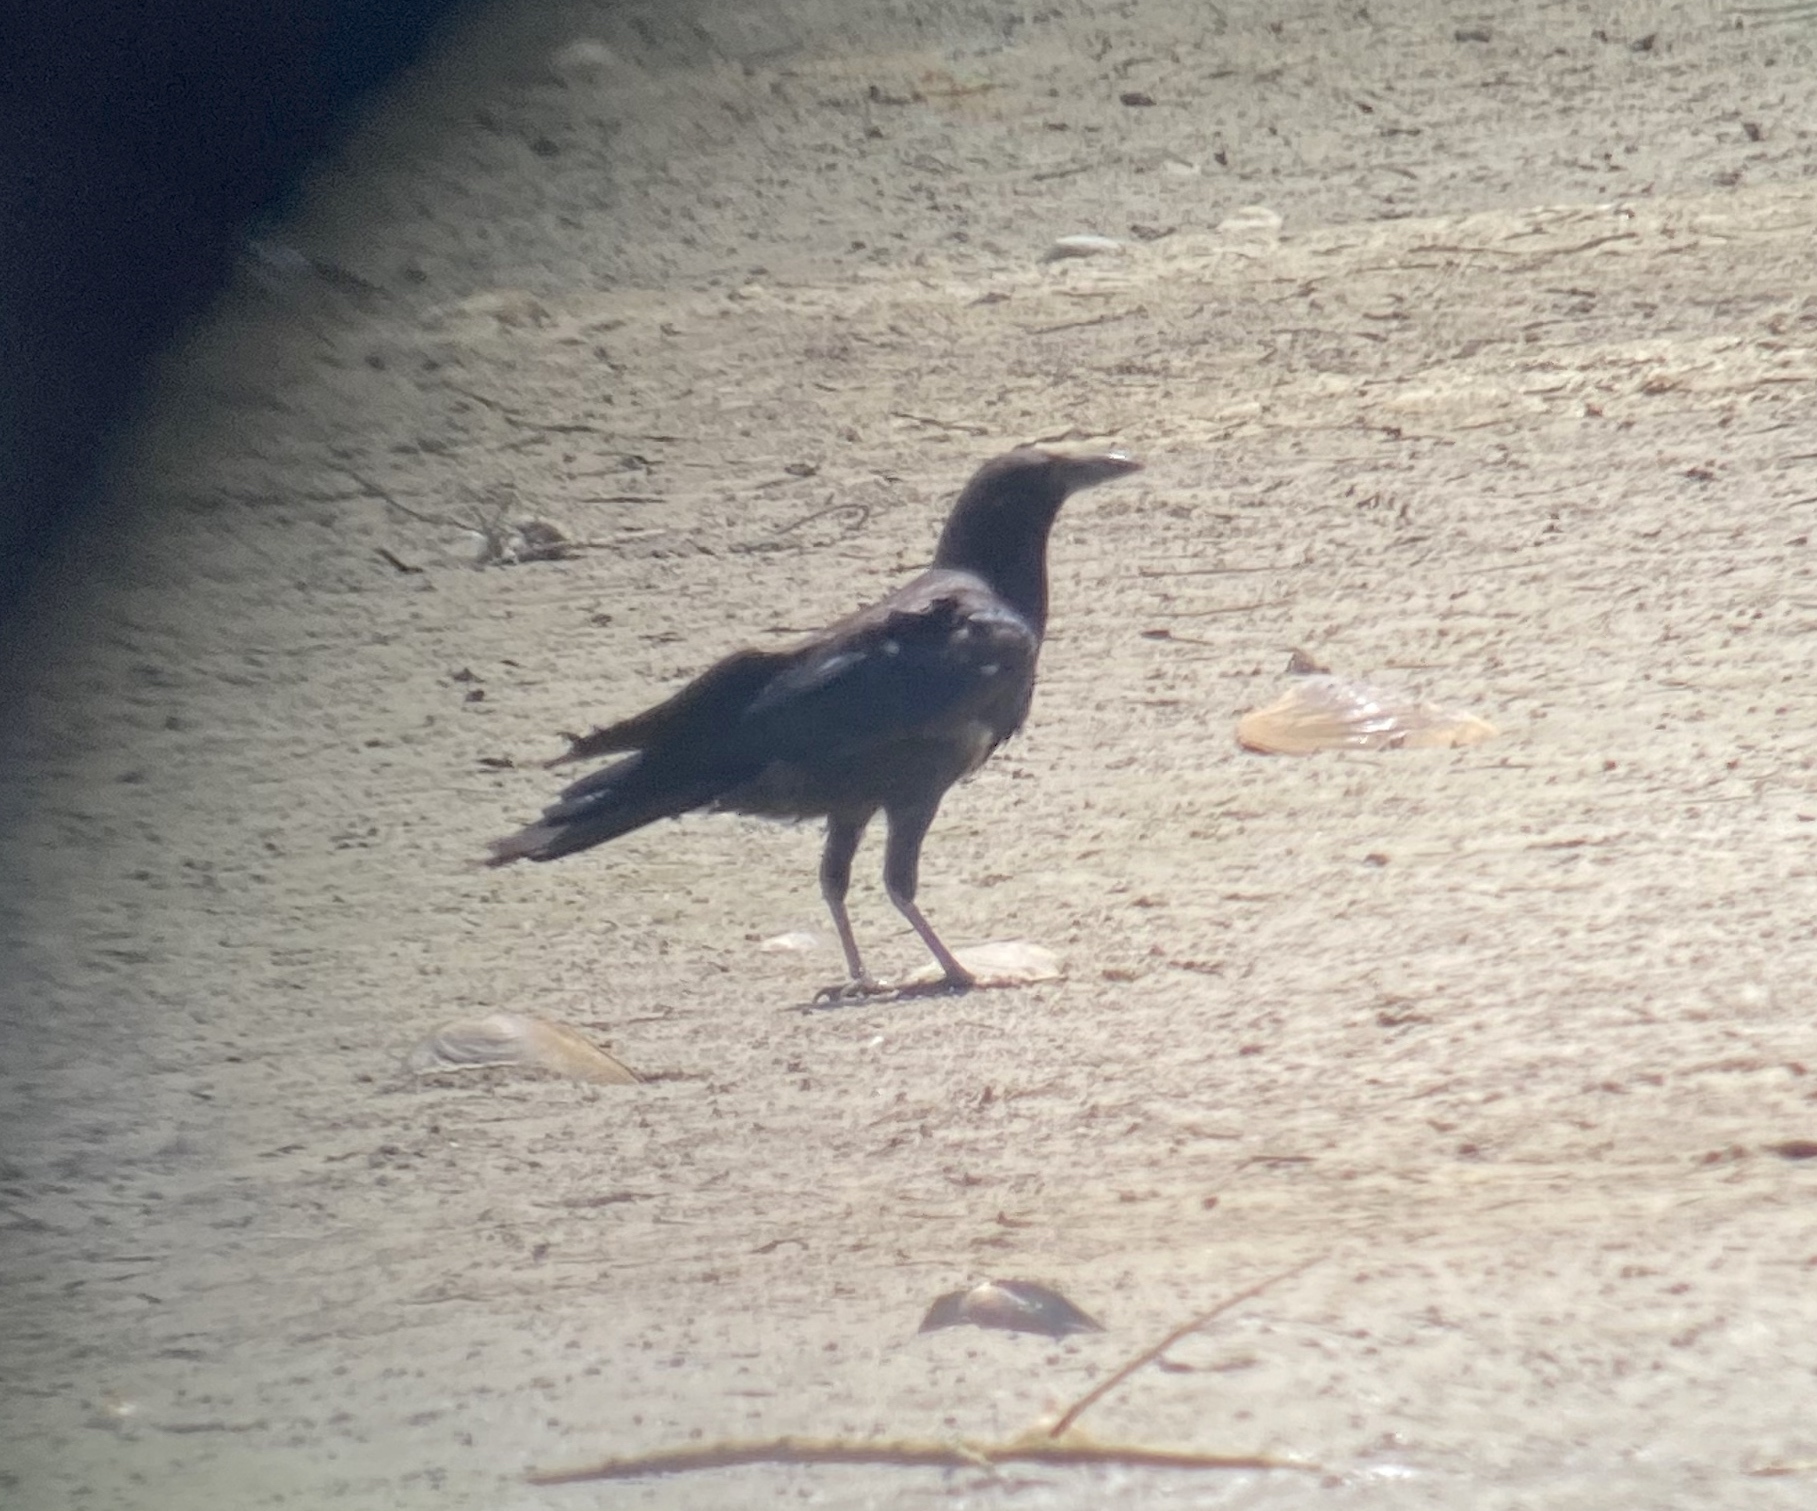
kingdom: Animalia
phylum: Chordata
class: Aves
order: Passeriformes
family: Corvidae
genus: Corvus
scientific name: Corvus brachyrhynchos
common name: American crow
